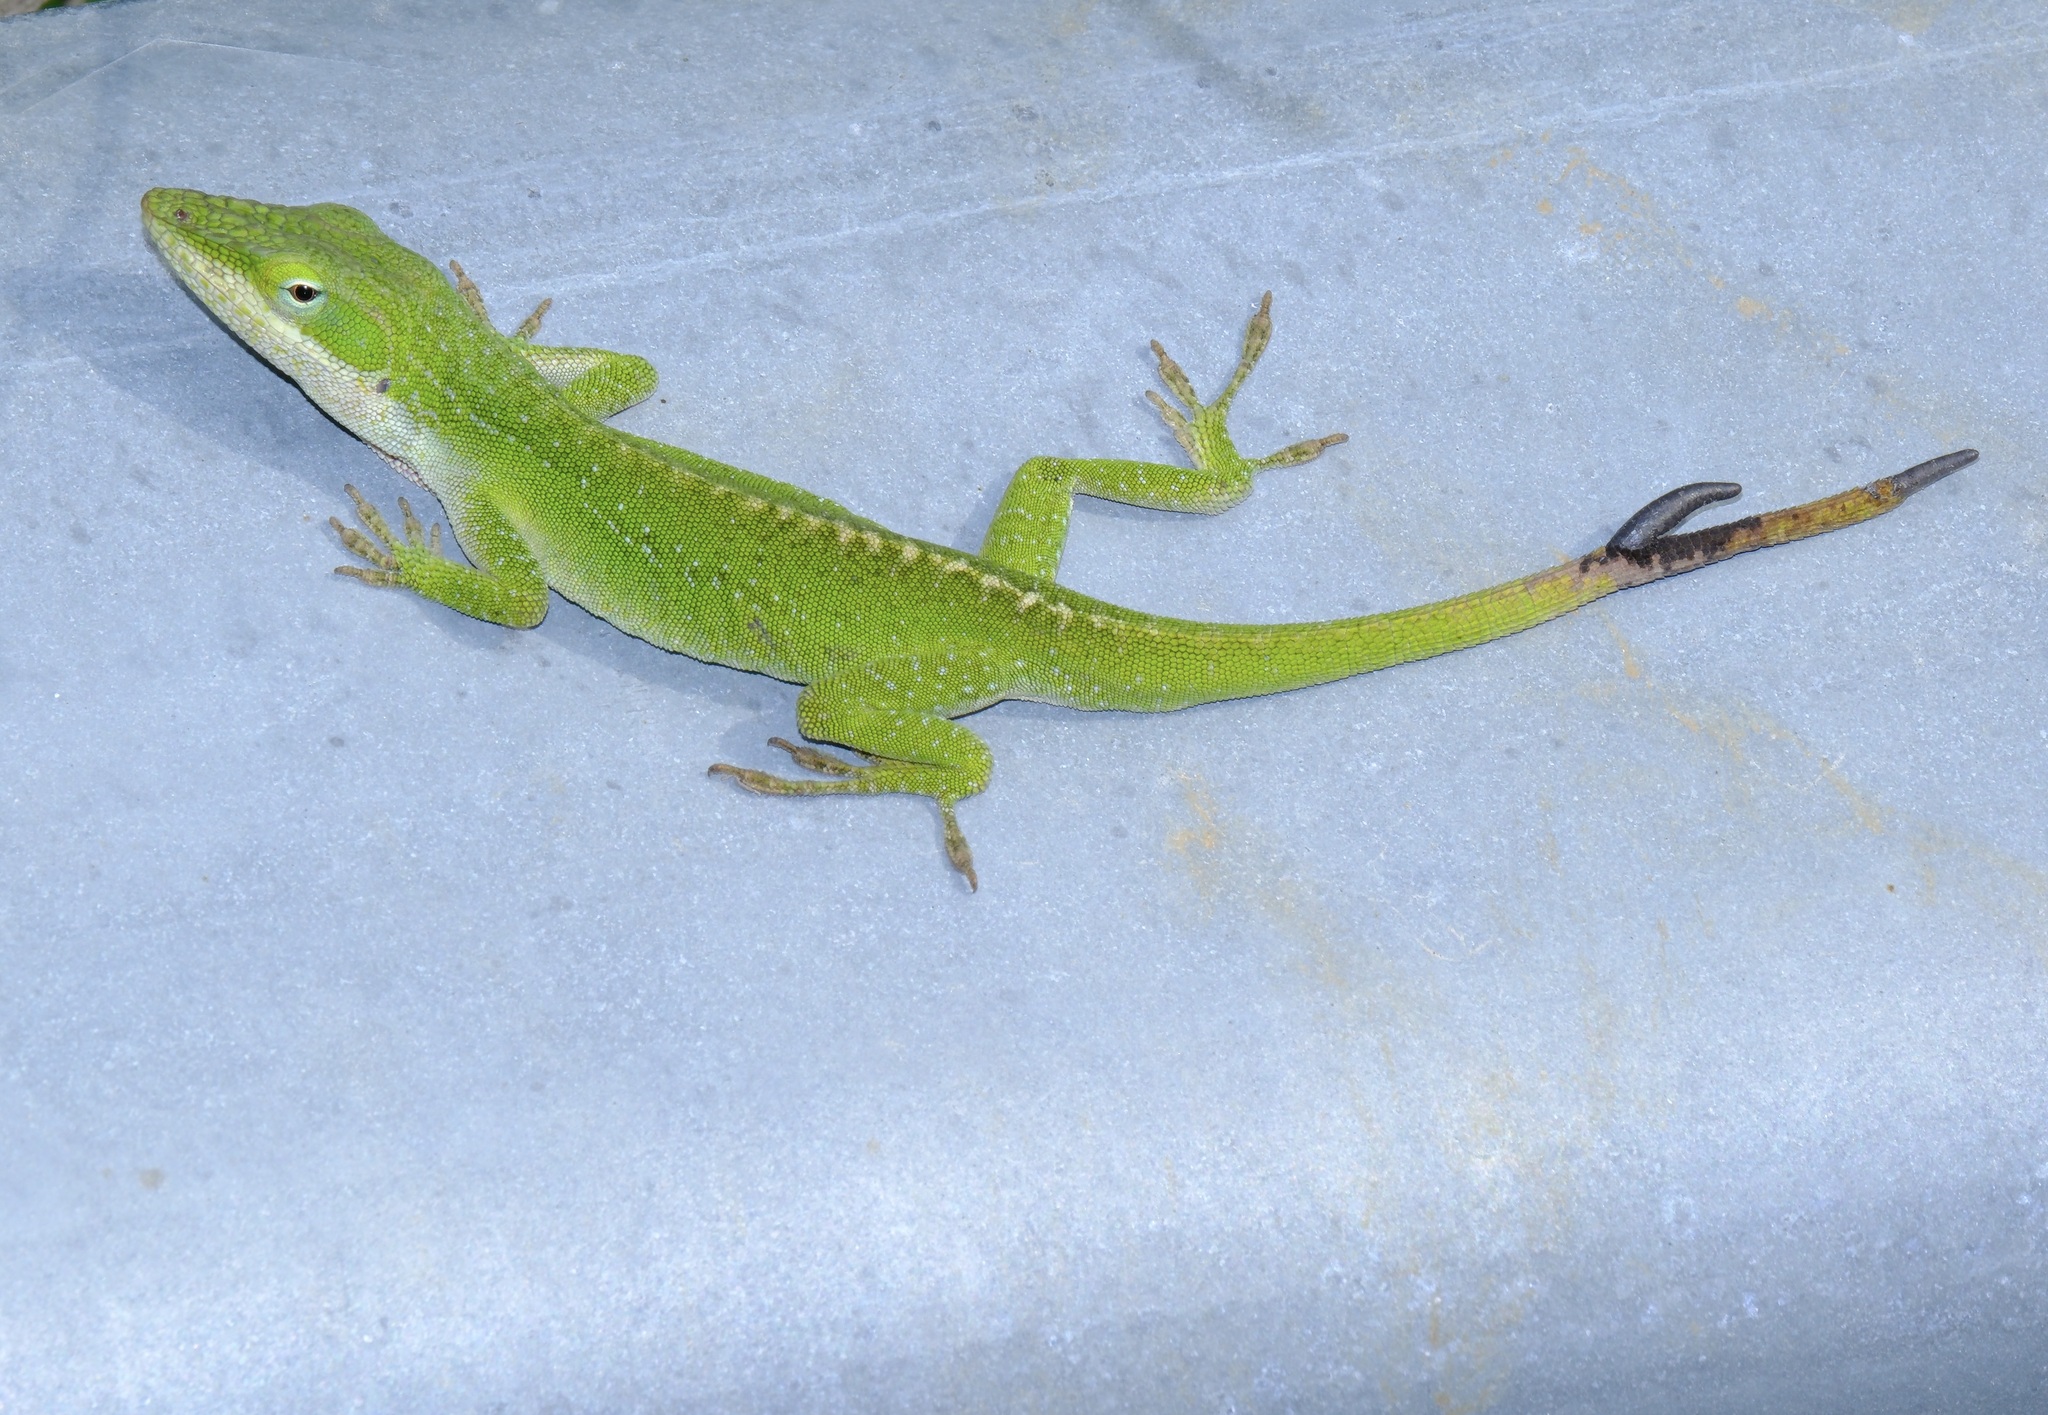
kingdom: Animalia
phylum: Chordata
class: Squamata
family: Dactyloidae
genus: Anolis
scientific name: Anolis carolinensis
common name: Green anole
